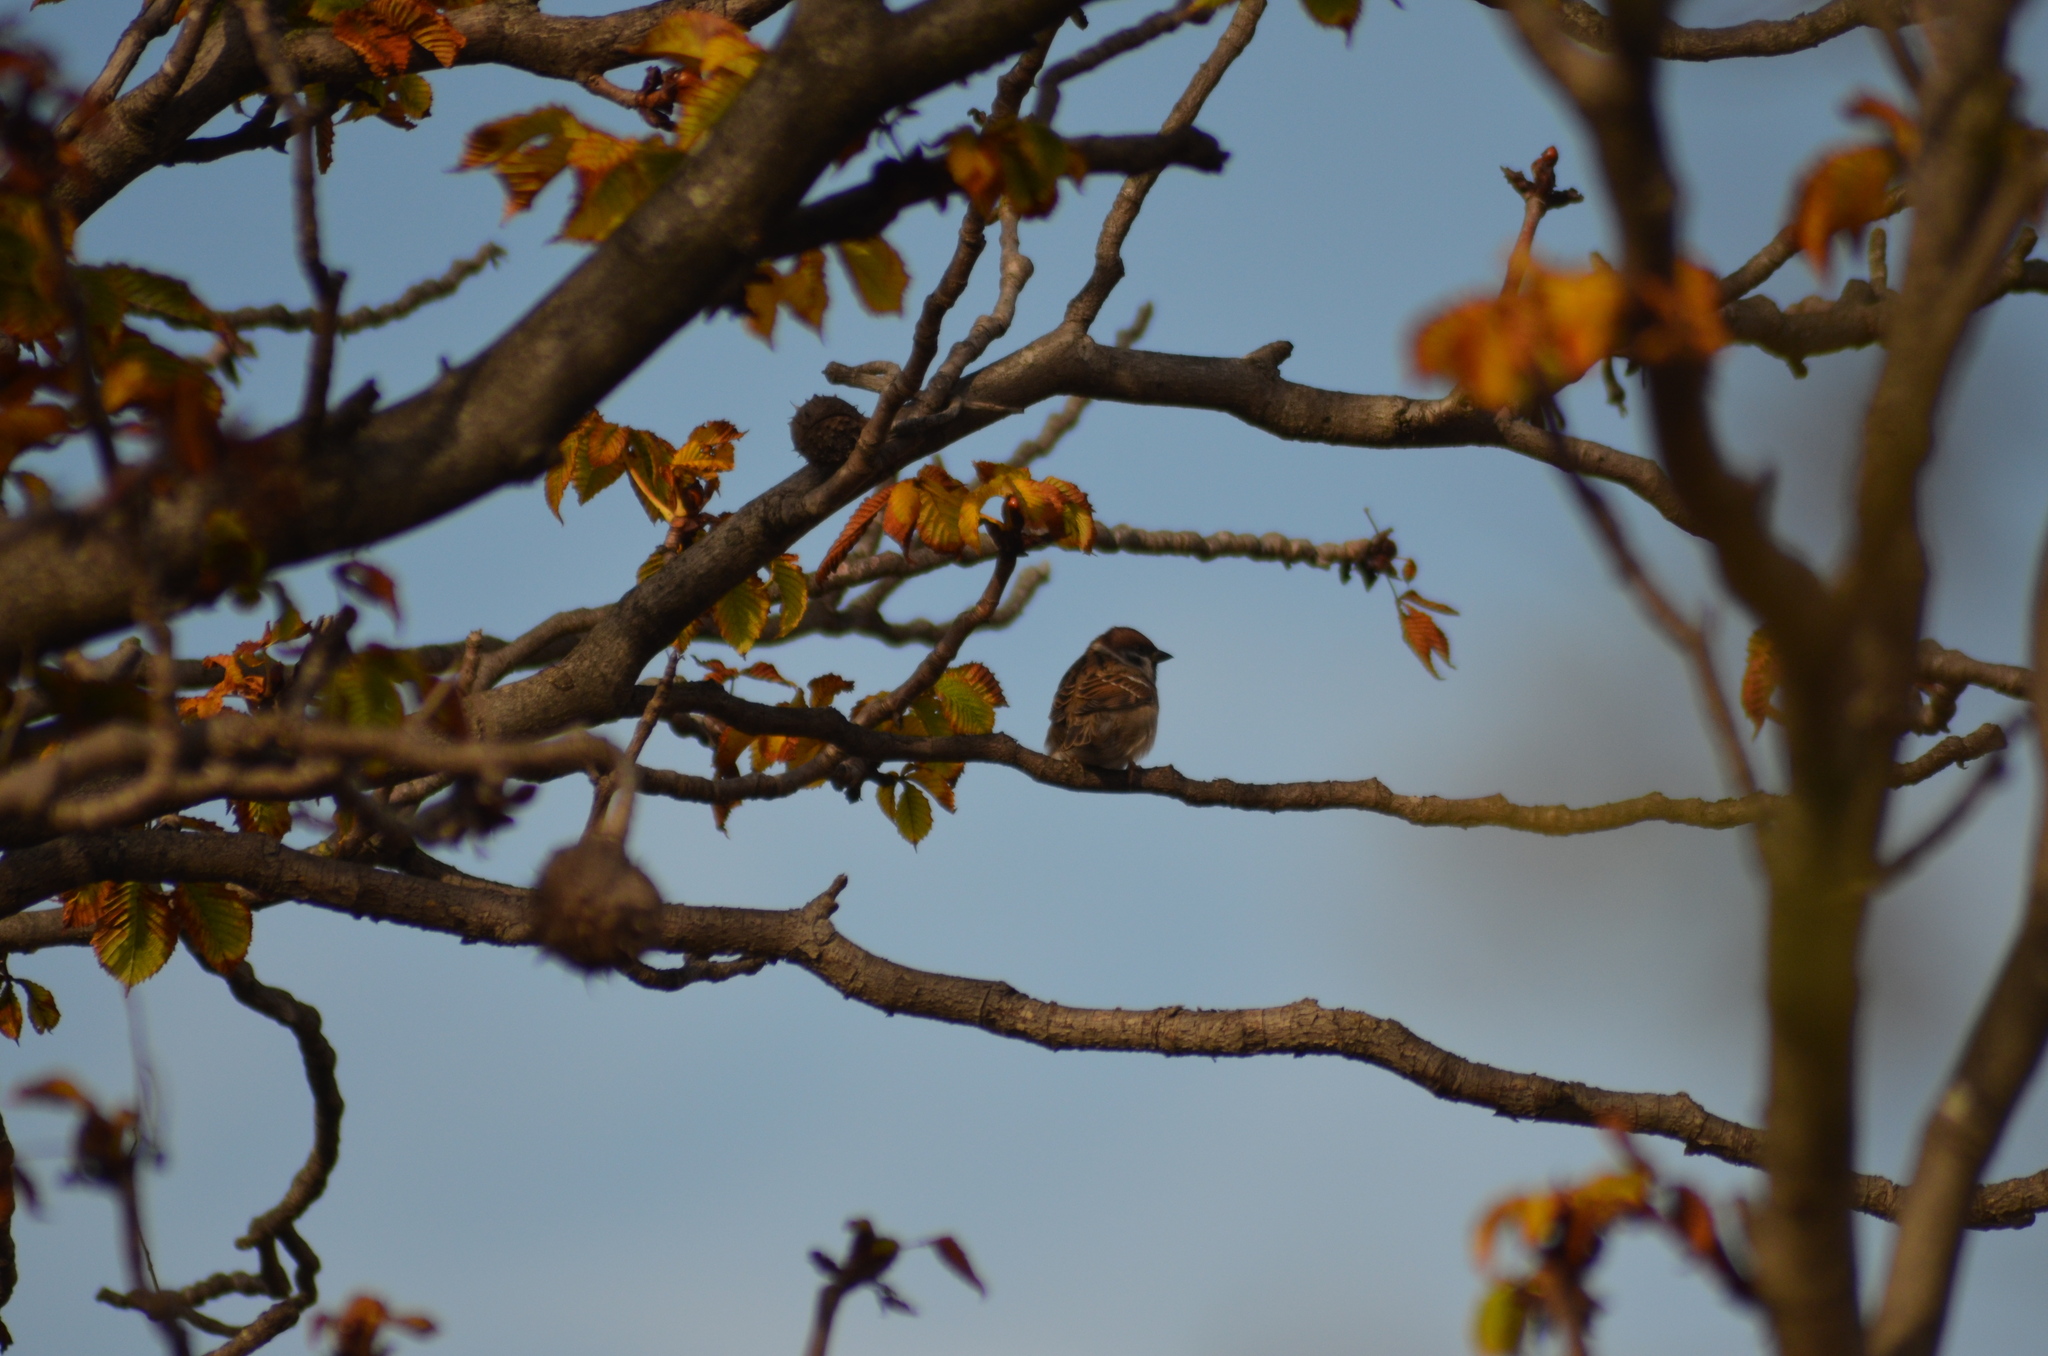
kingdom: Animalia
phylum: Chordata
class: Aves
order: Passeriformes
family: Passeridae
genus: Passer
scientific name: Passer montanus
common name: Eurasian tree sparrow
